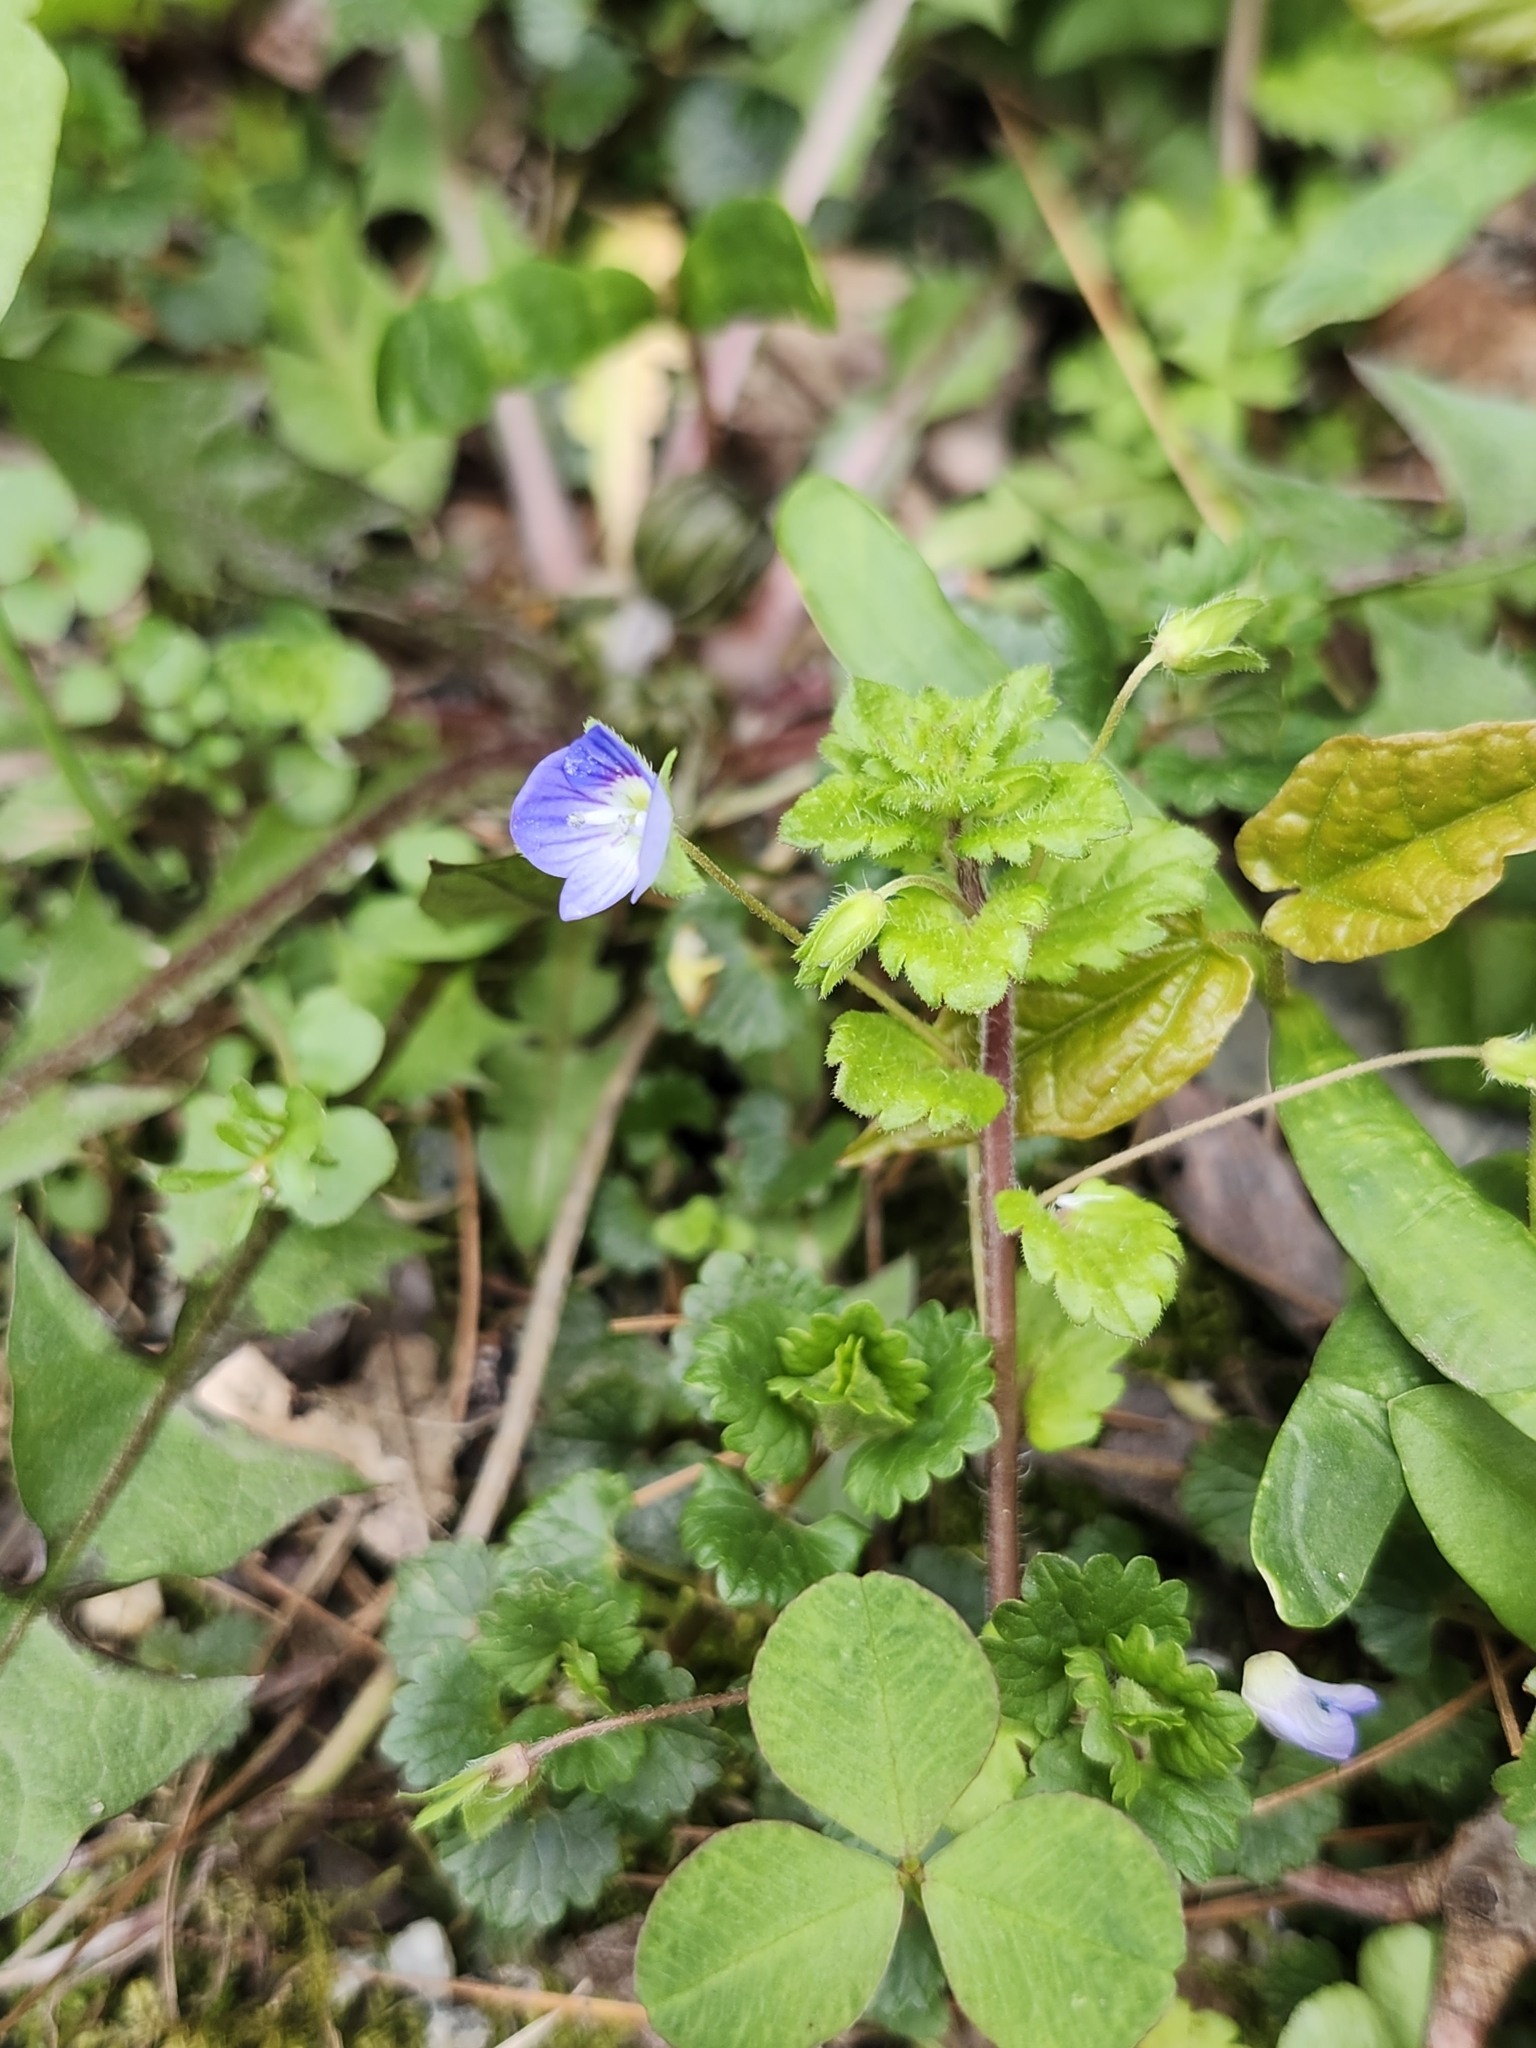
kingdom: Plantae
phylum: Tracheophyta
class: Magnoliopsida
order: Lamiales
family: Plantaginaceae
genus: Veronica
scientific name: Veronica persica
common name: Common field-speedwell
